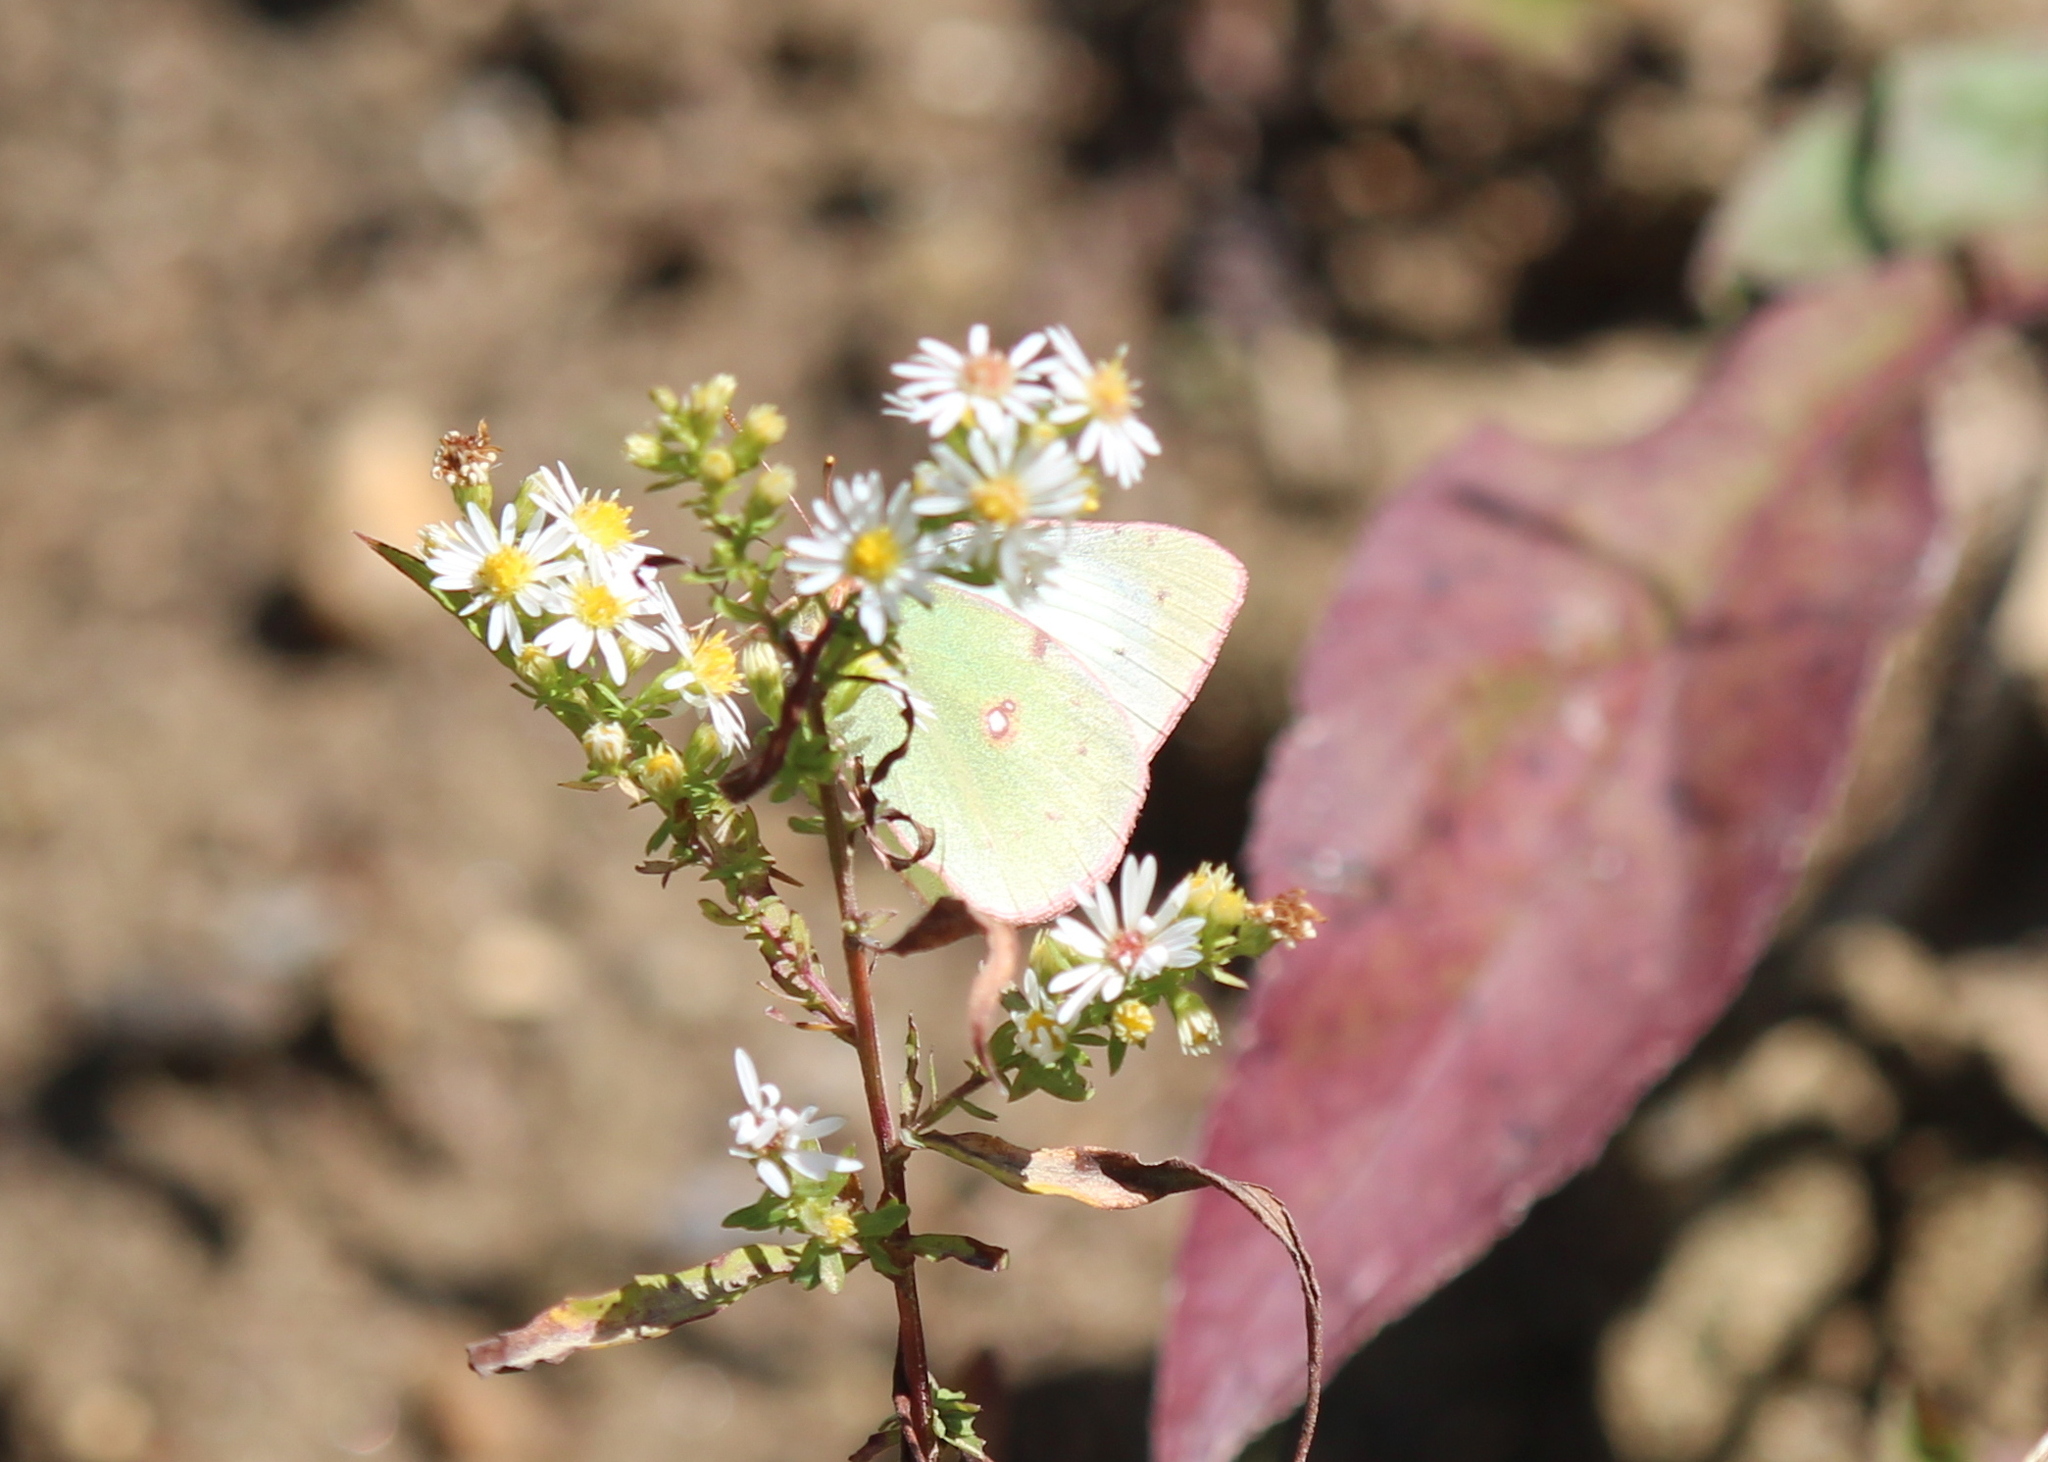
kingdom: Animalia
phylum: Arthropoda
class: Insecta
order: Lepidoptera
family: Pieridae
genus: Colias
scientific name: Colias philodice
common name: Clouded sulphur
